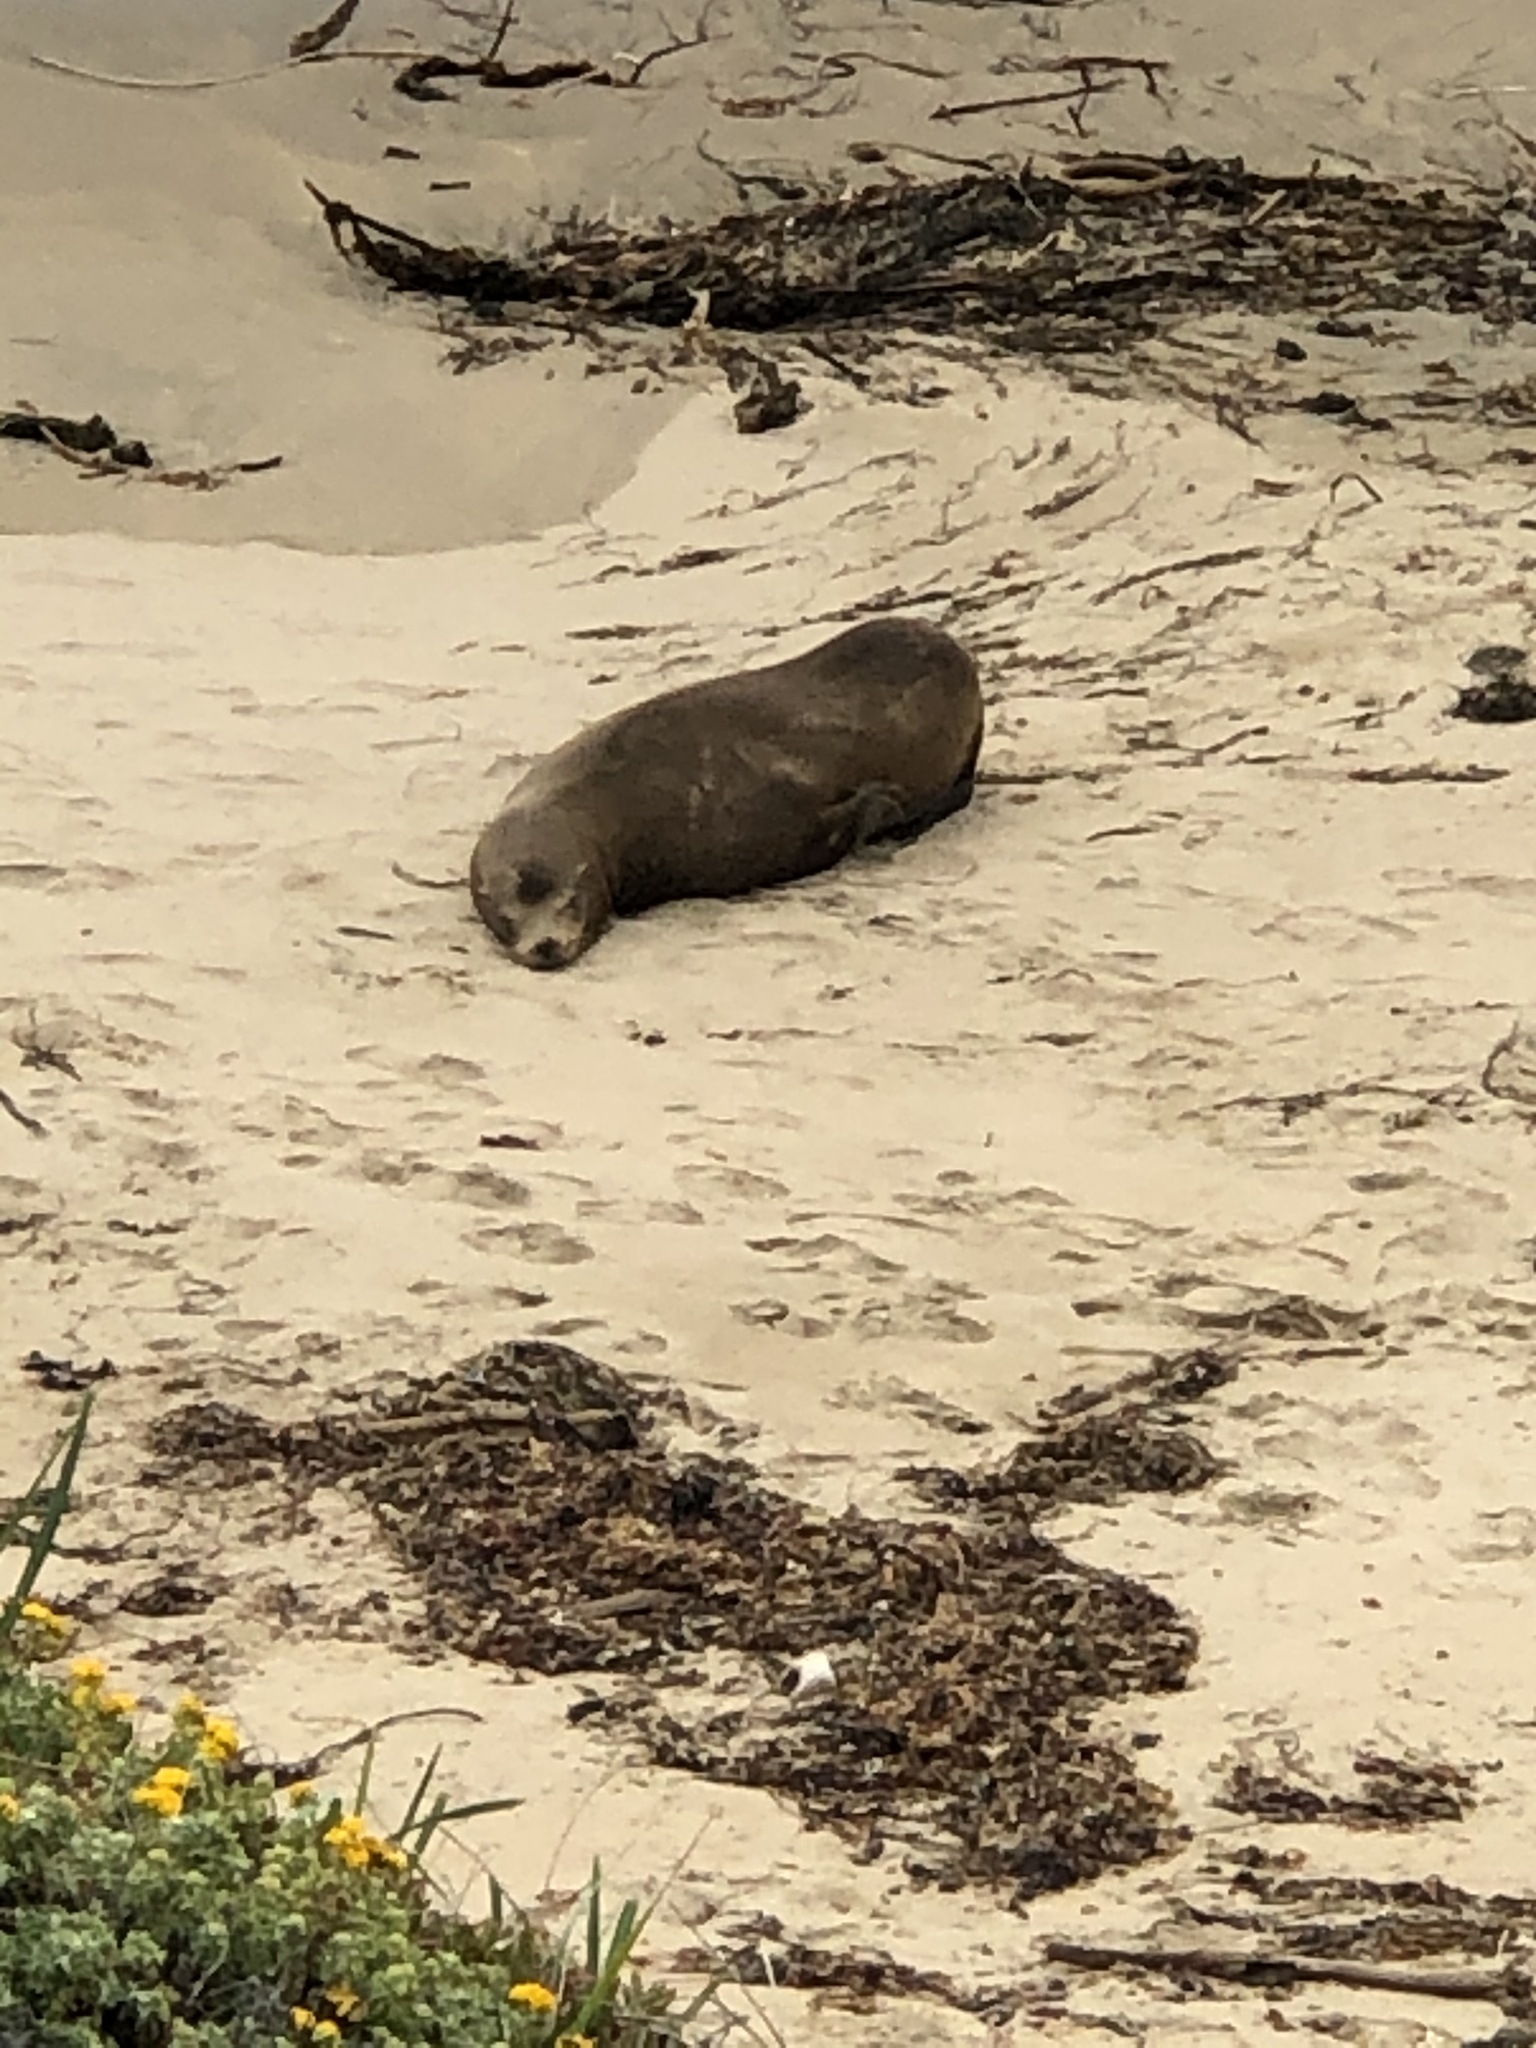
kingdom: Animalia
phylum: Chordata
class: Mammalia
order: Carnivora
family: Otariidae
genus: Zalophus
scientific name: Zalophus californianus
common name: California sea lion
